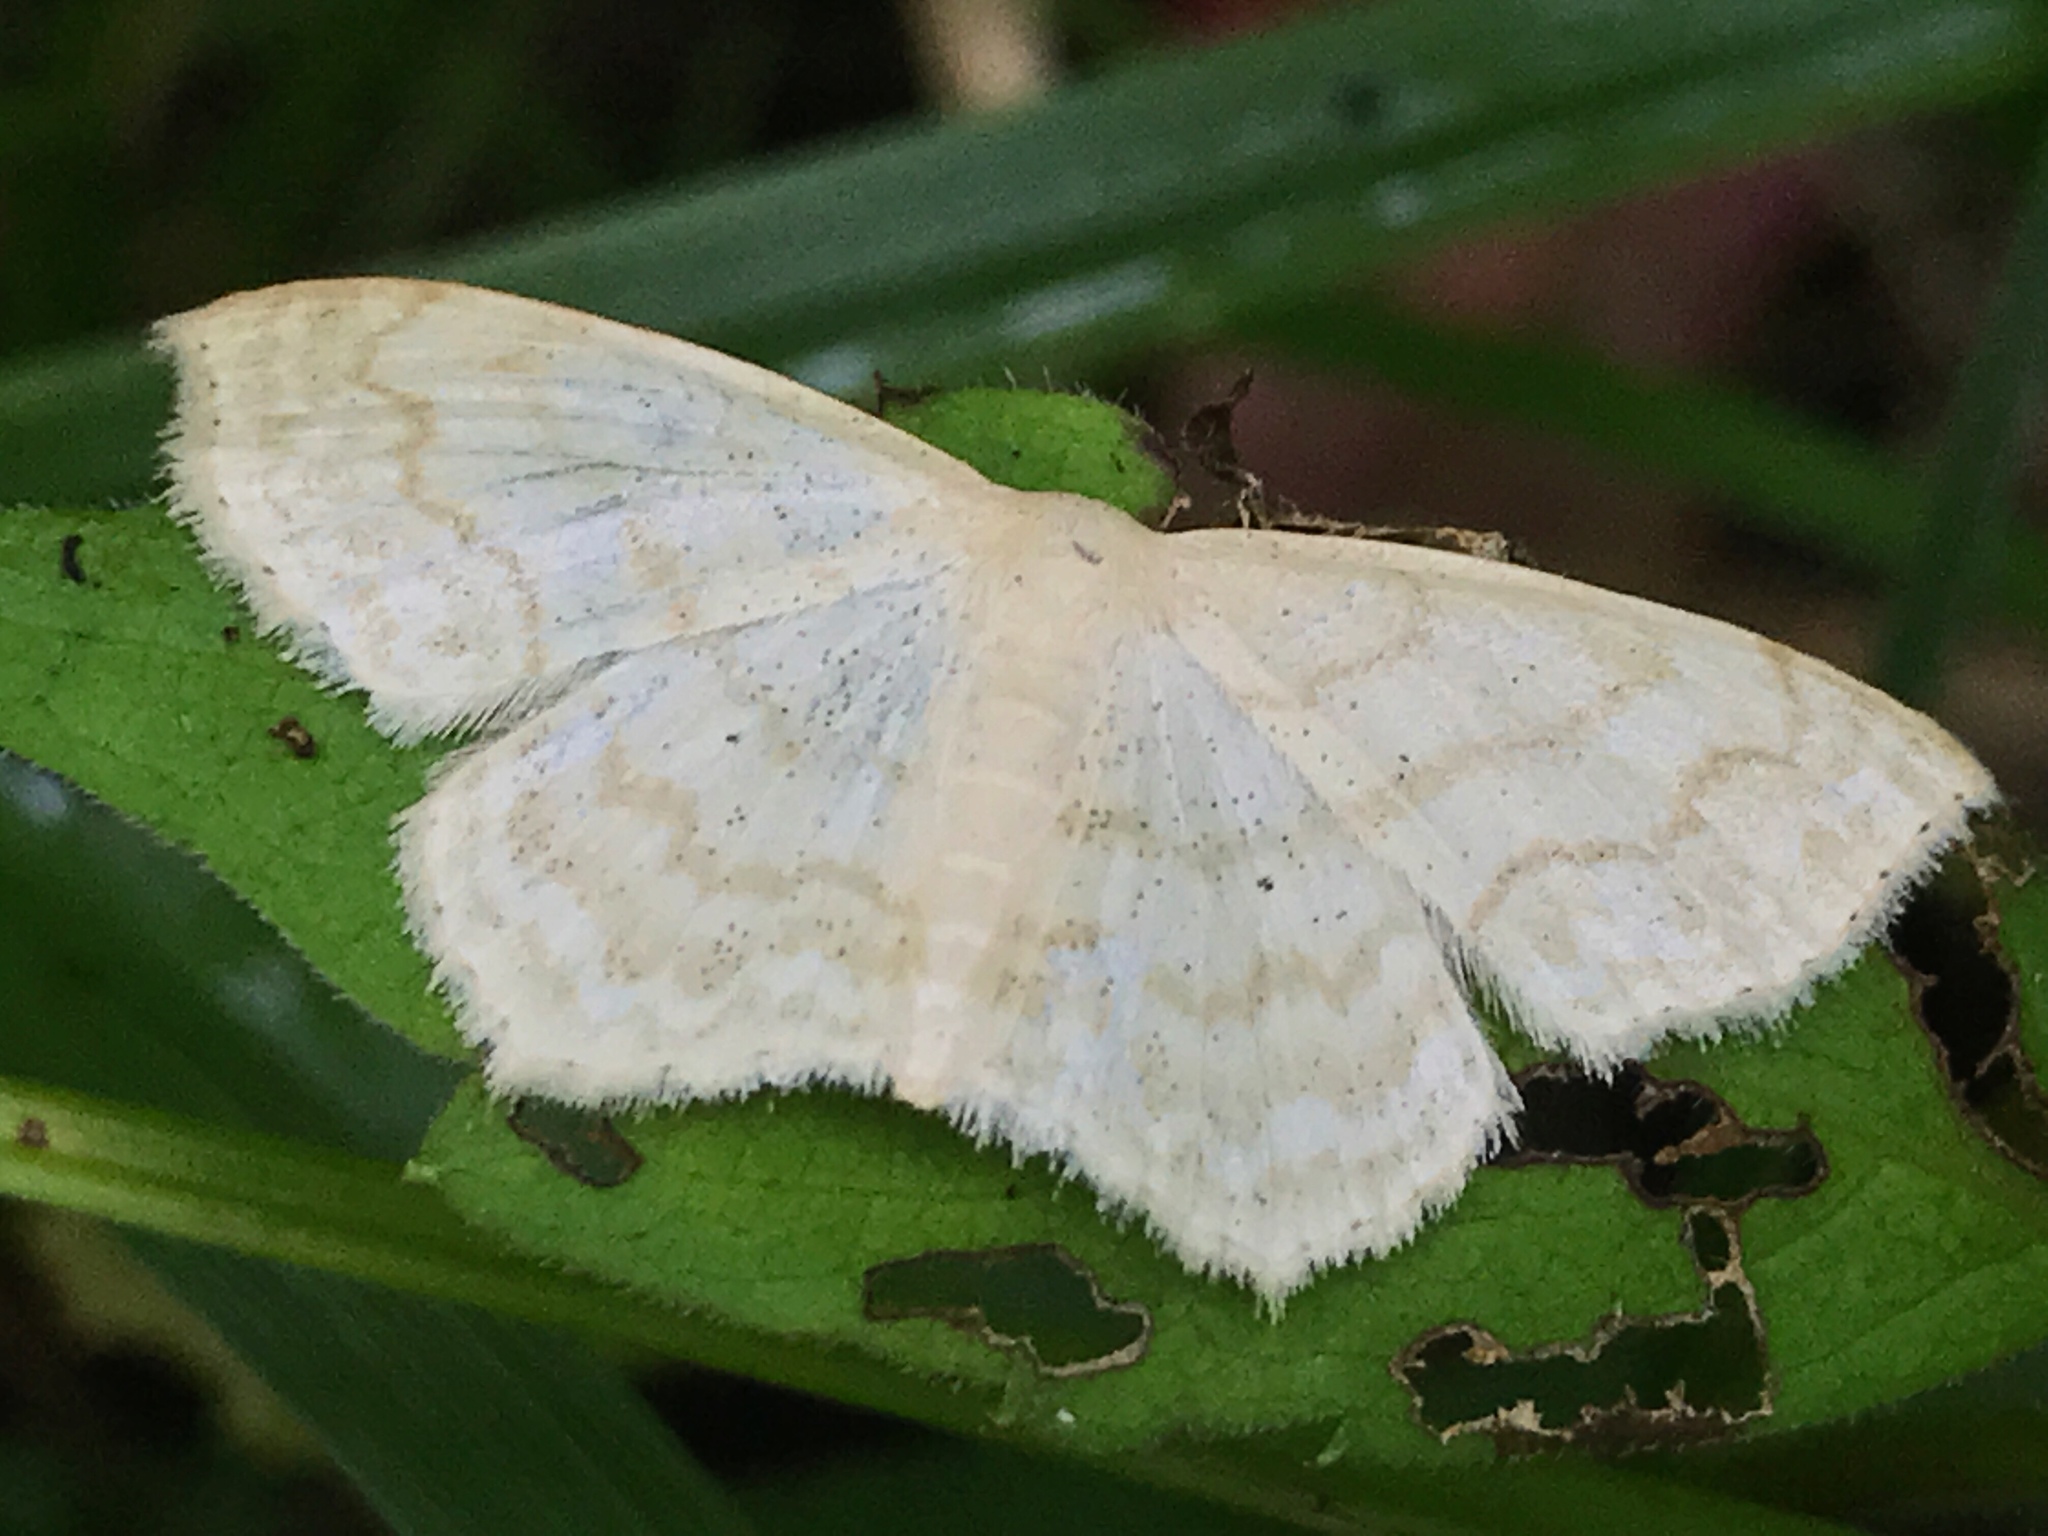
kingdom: Animalia
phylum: Arthropoda
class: Insecta
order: Lepidoptera
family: Geometridae
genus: Scopula
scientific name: Scopula limboundata
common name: Large lace border
